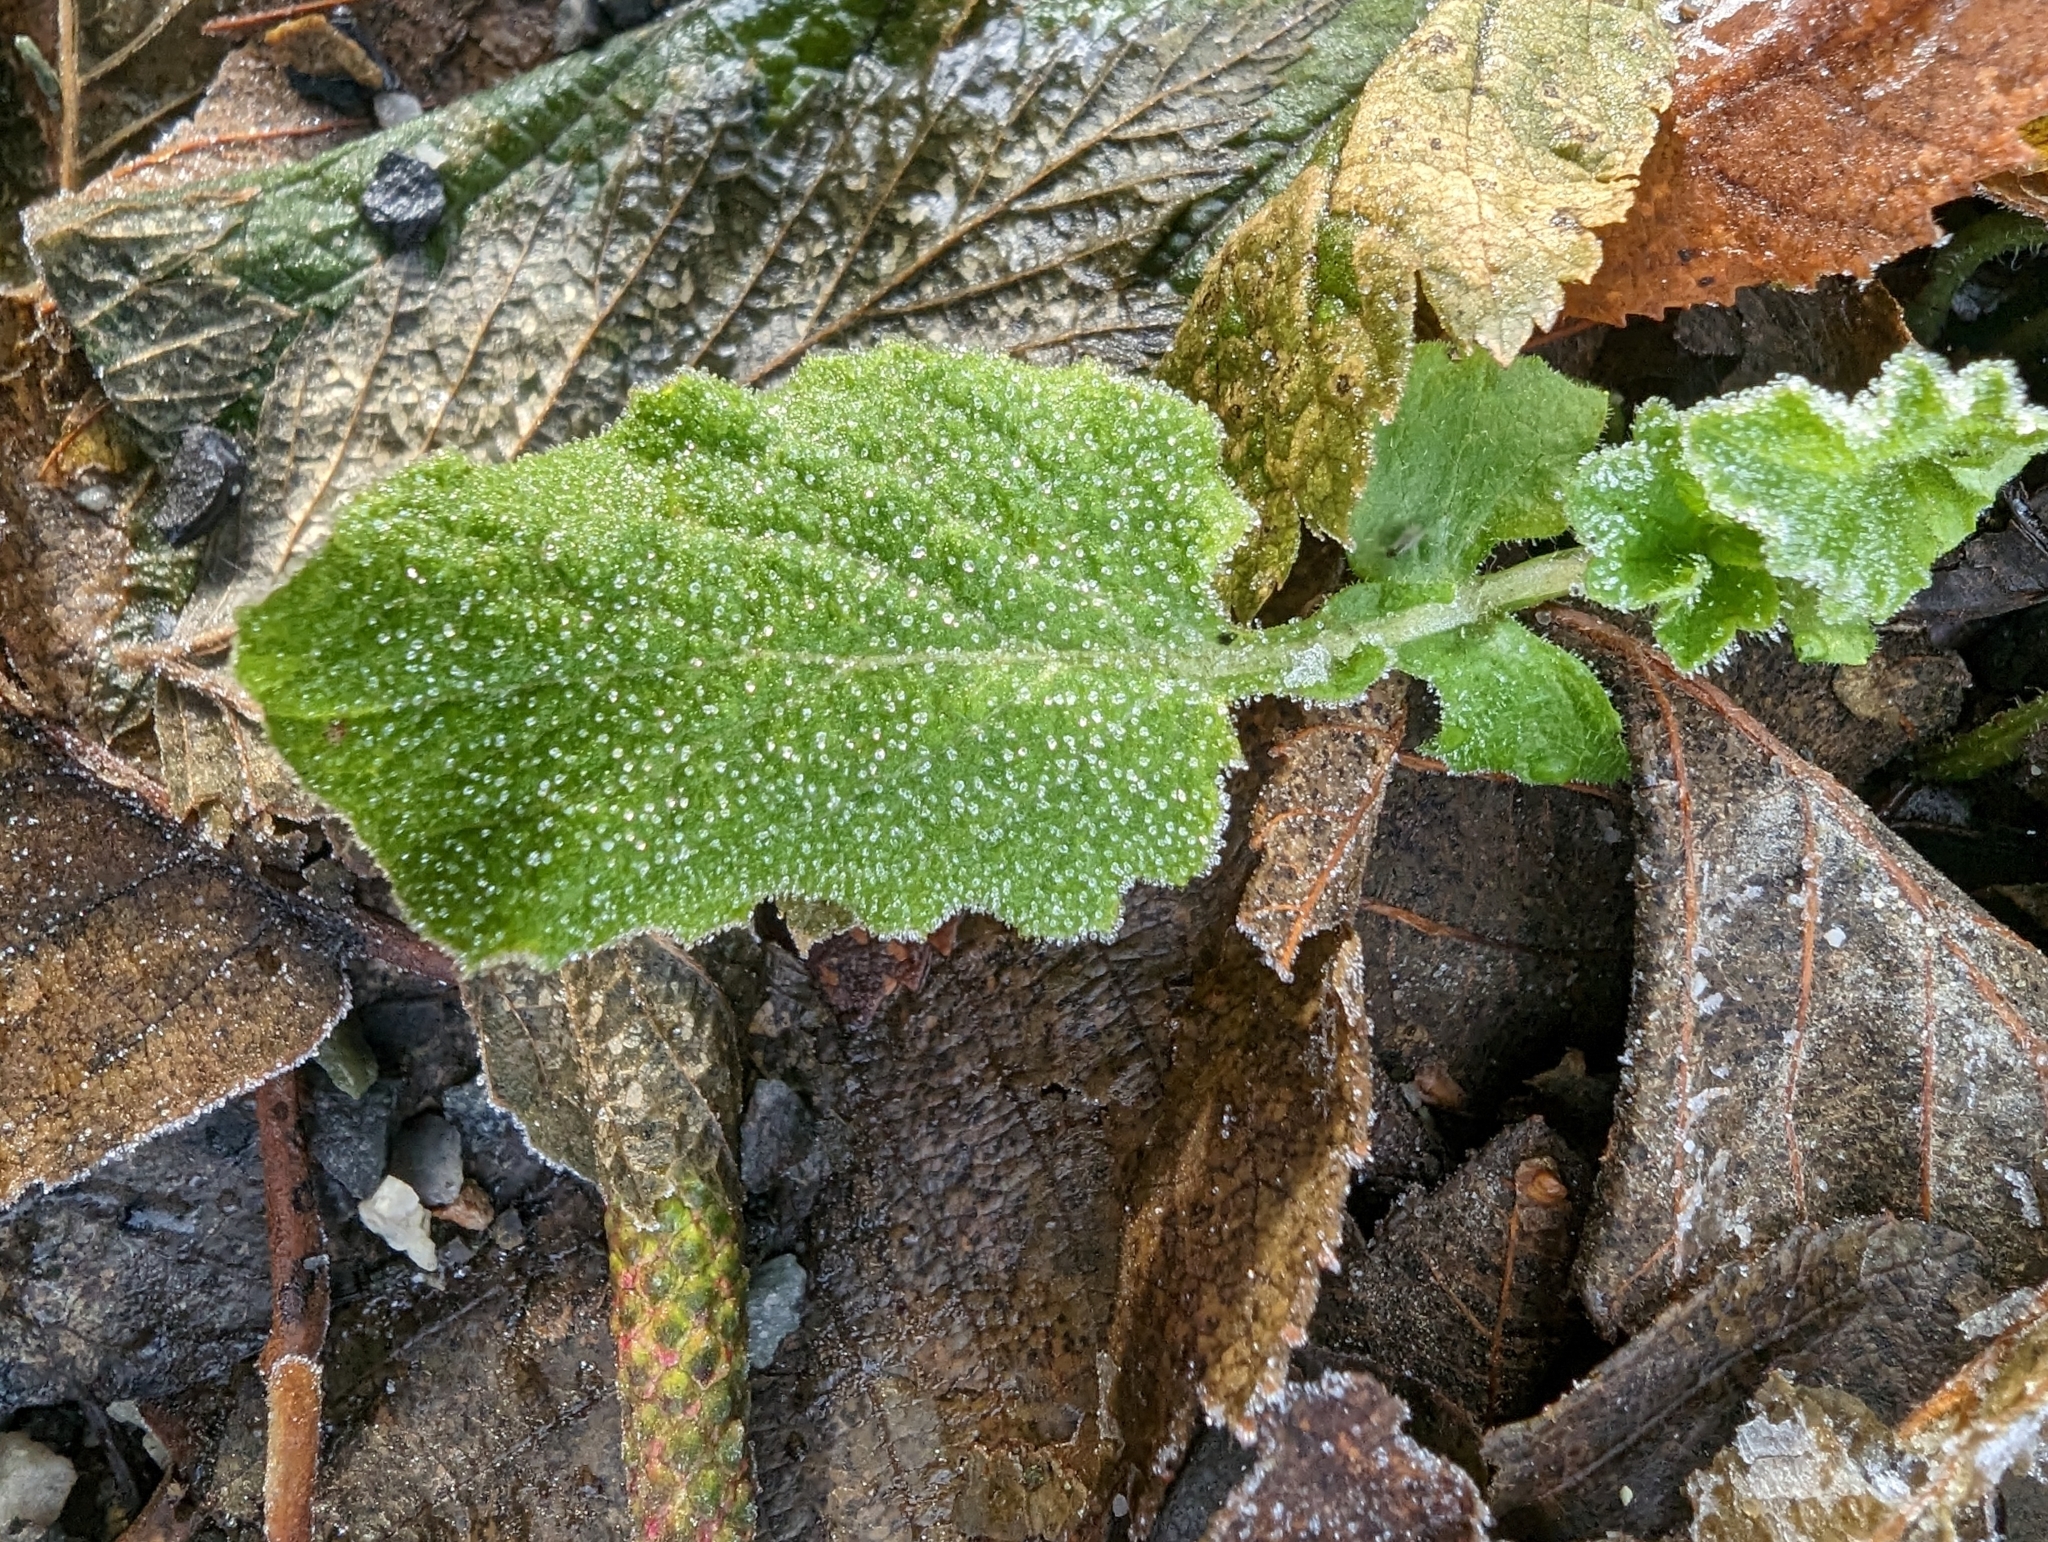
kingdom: Plantae
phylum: Tracheophyta
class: Magnoliopsida
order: Asterales
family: Asteraceae
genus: Lapsana
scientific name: Lapsana communis
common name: Nipplewort
